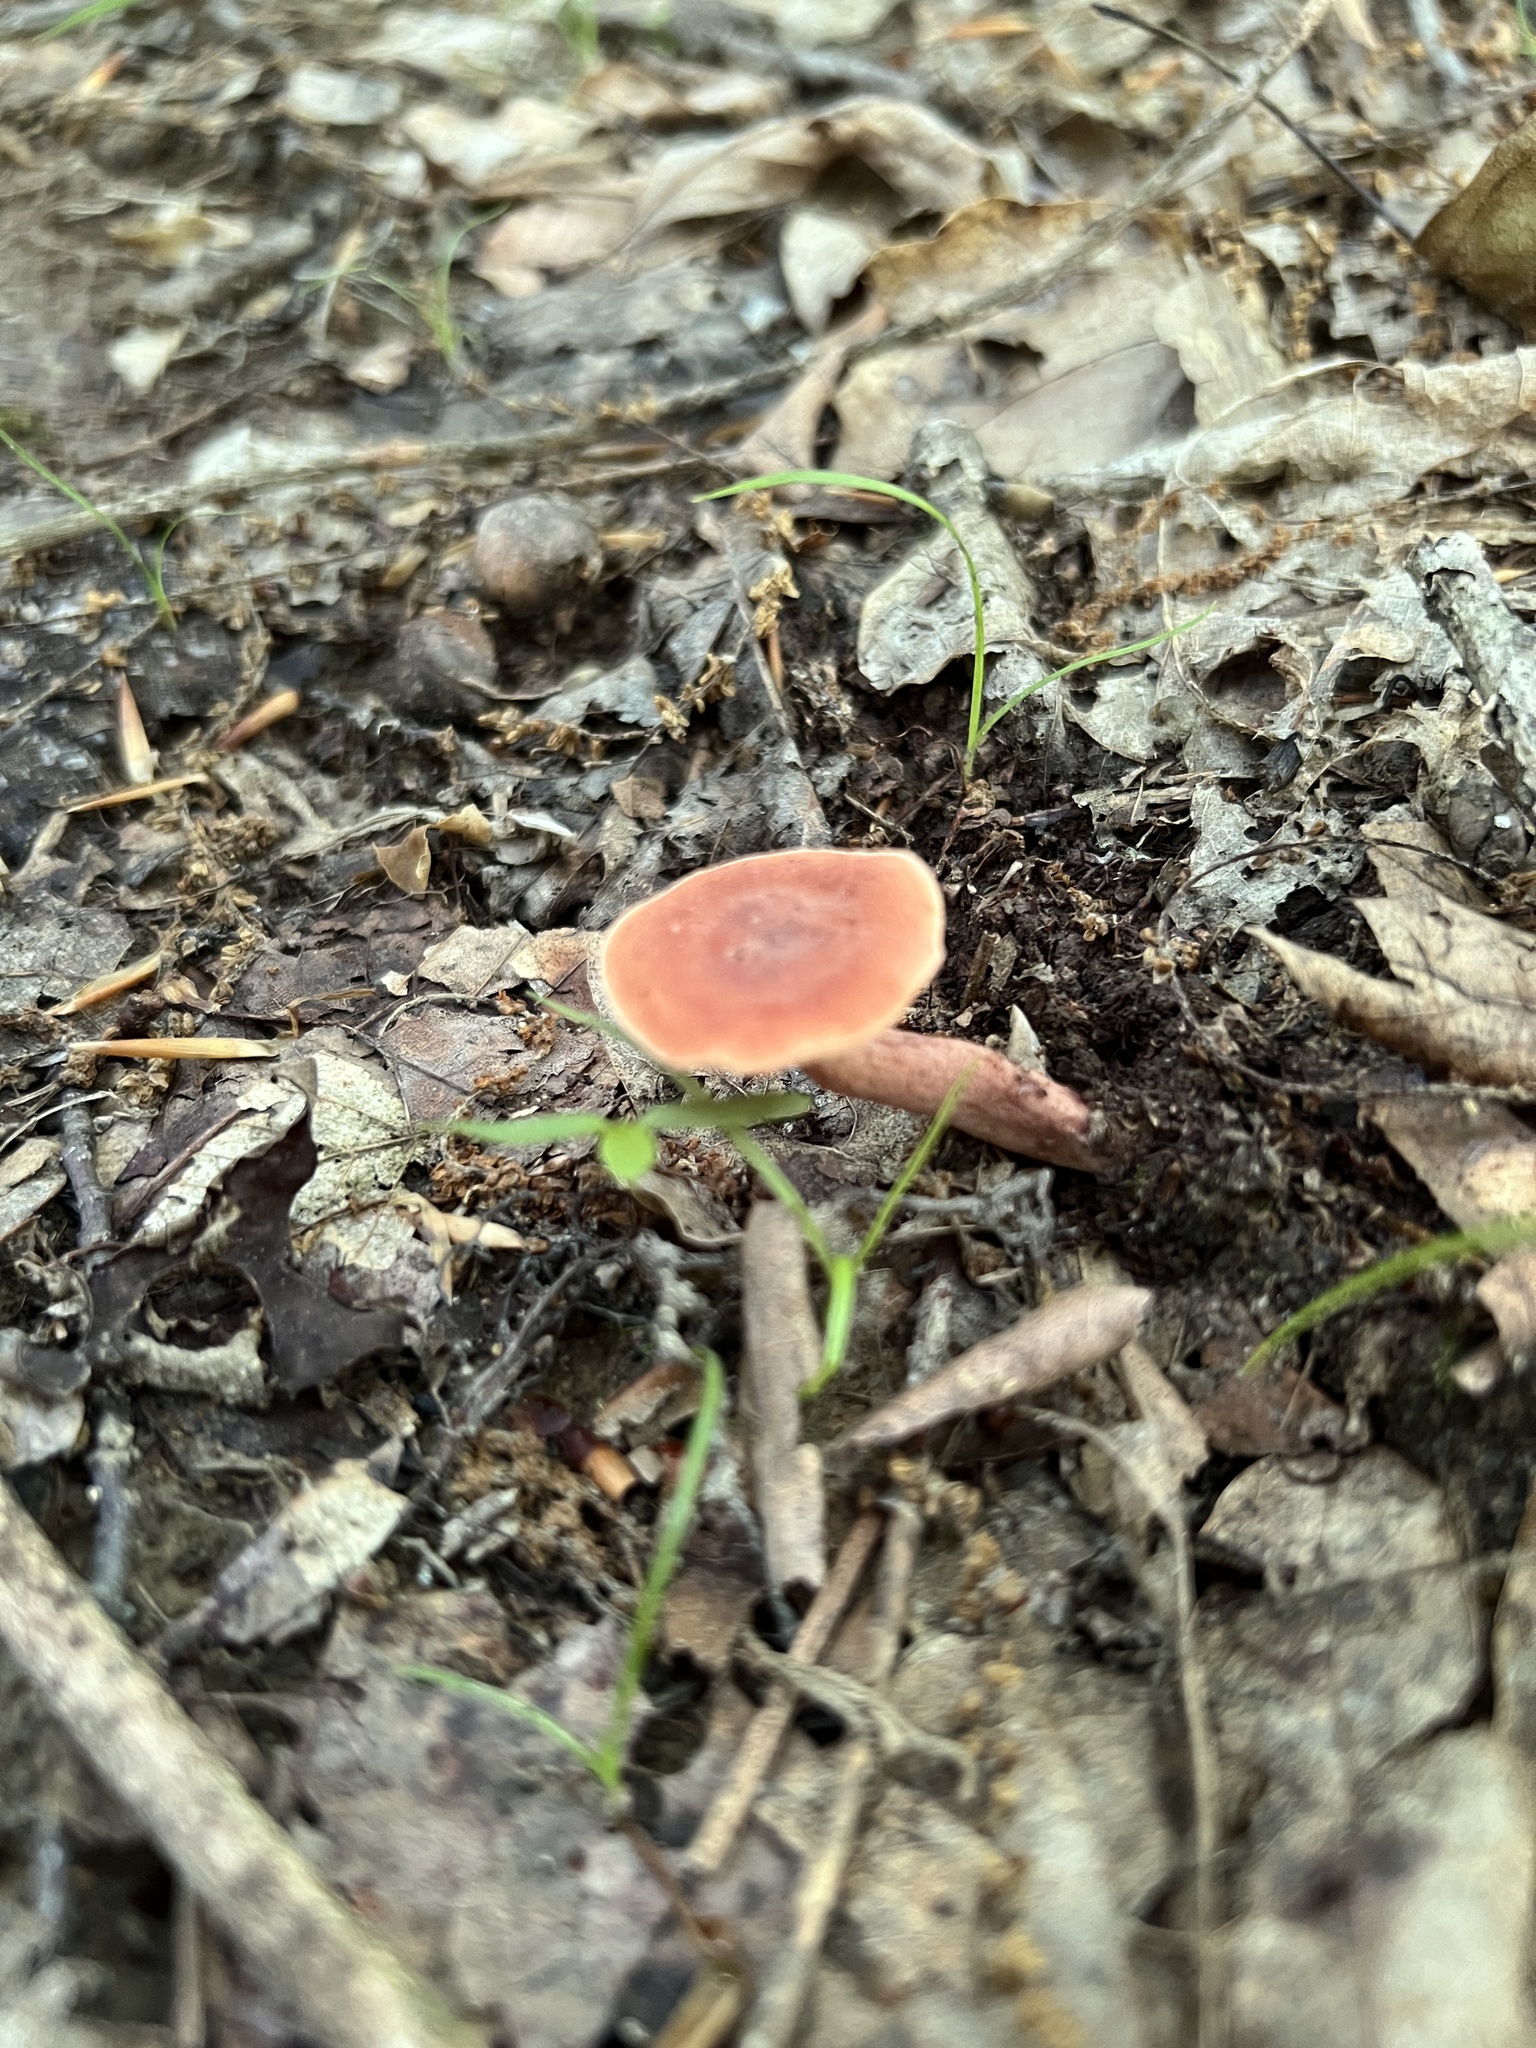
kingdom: Fungi
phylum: Basidiomycota
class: Agaricomycetes
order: Russulales
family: Russulaceae
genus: Lactarius
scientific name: Lactarius camphoratus
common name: Curry milkcap
